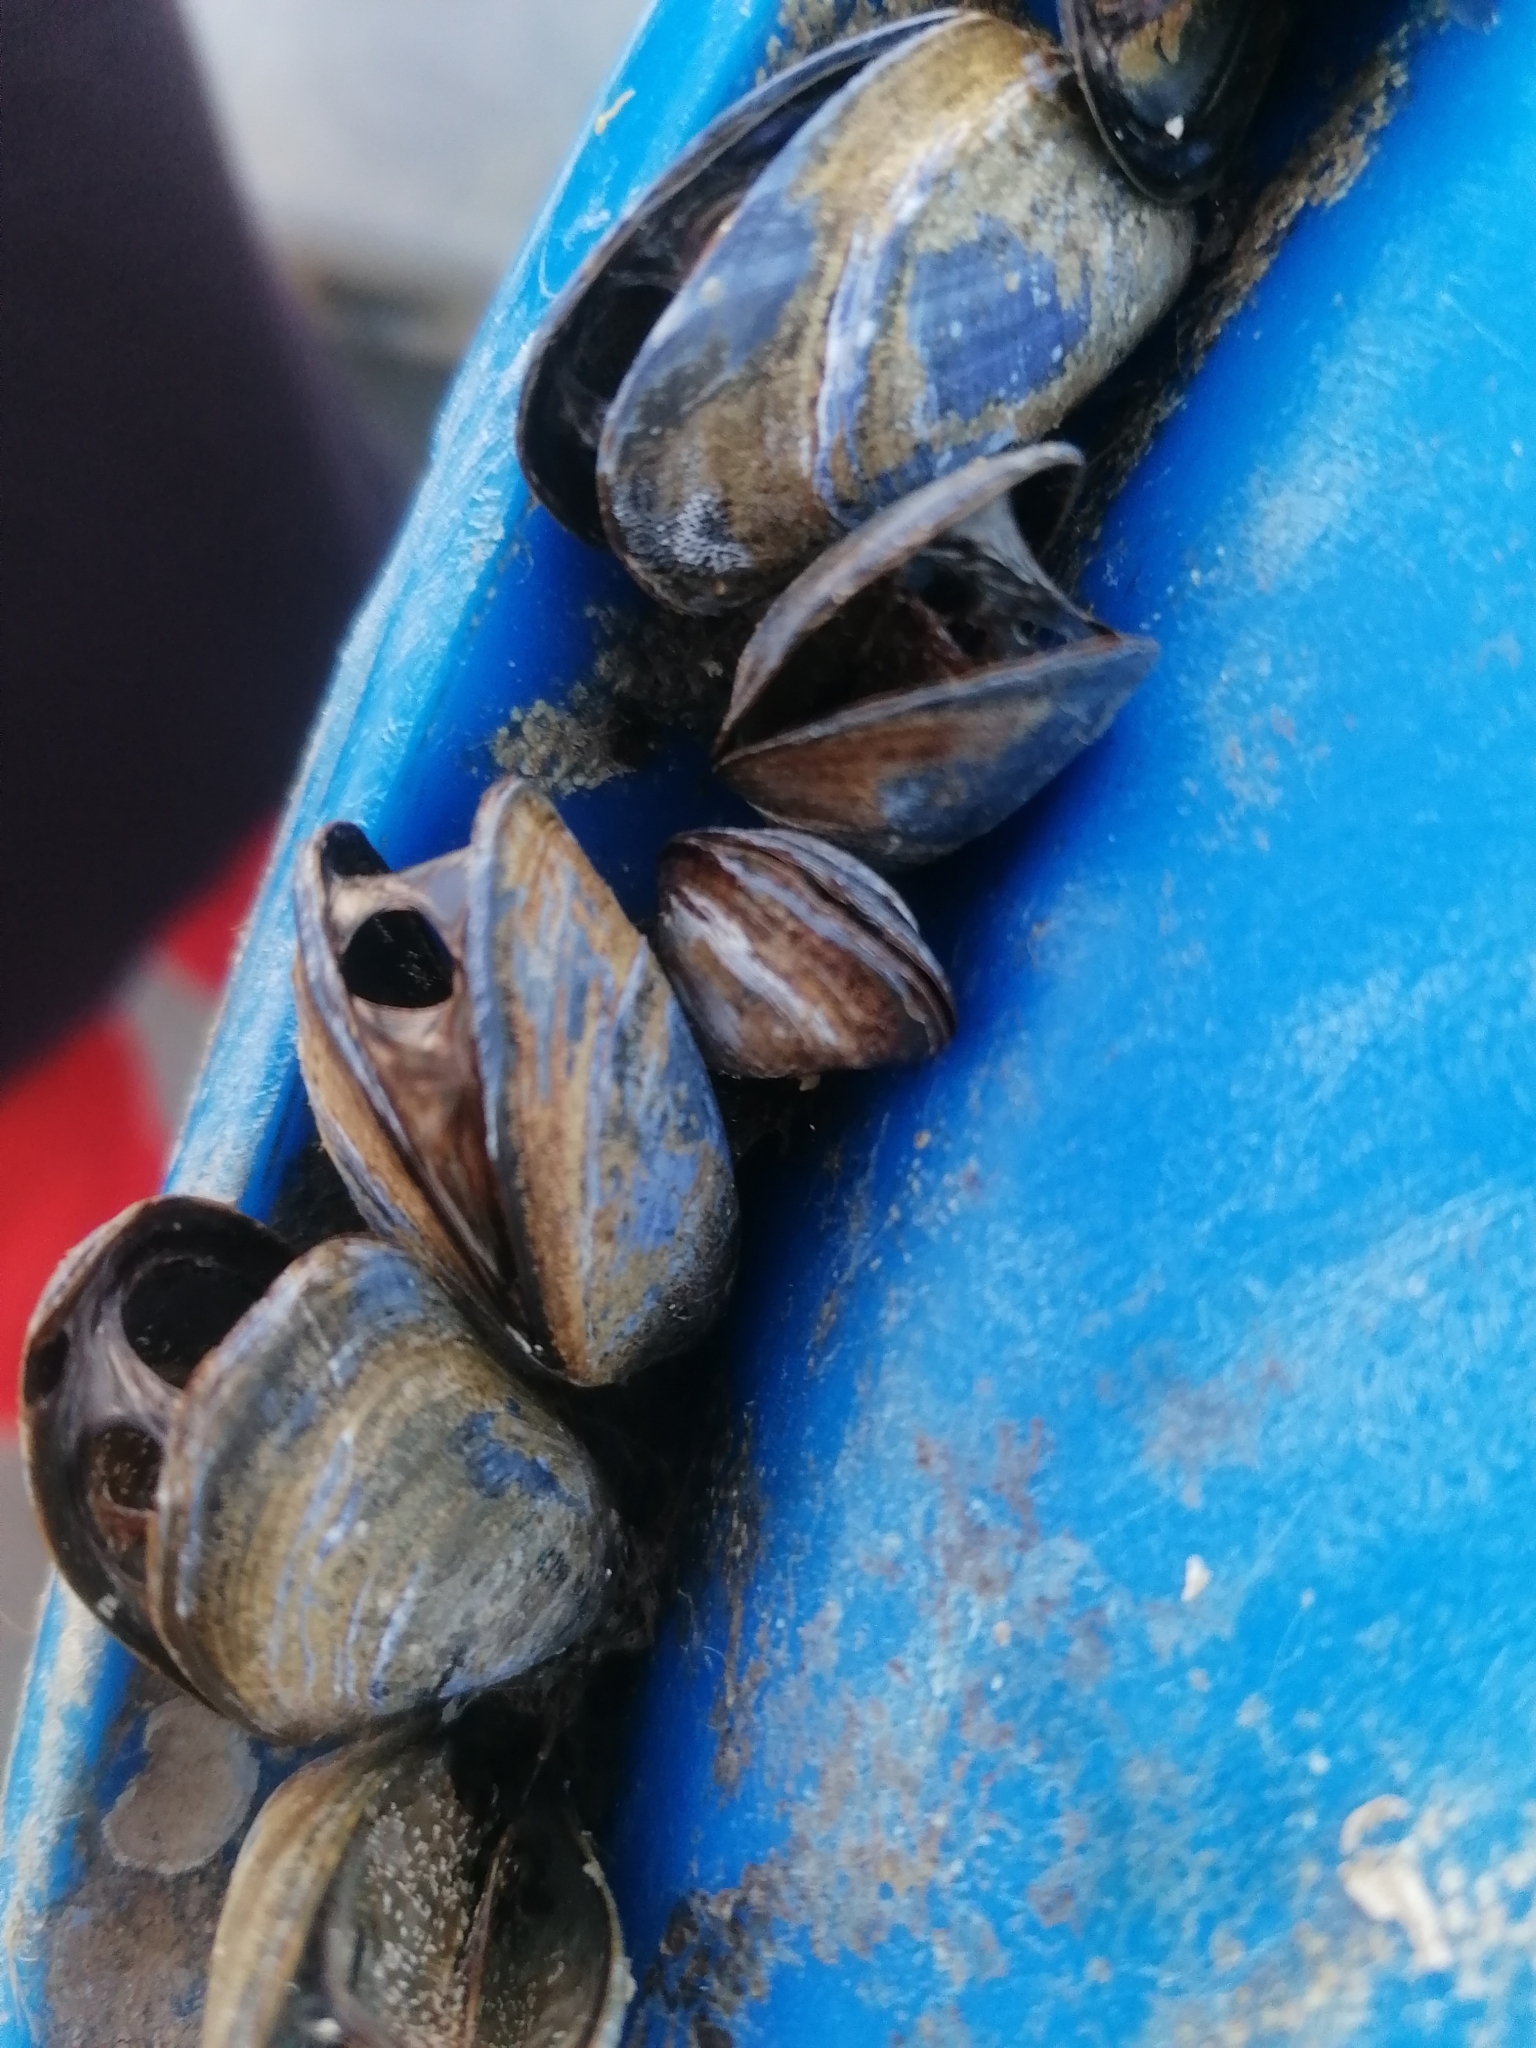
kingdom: Animalia
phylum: Mollusca
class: Bivalvia
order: Mytilida
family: Mytilidae
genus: Mytilus
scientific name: Mytilus edulis
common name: Blue mussel
